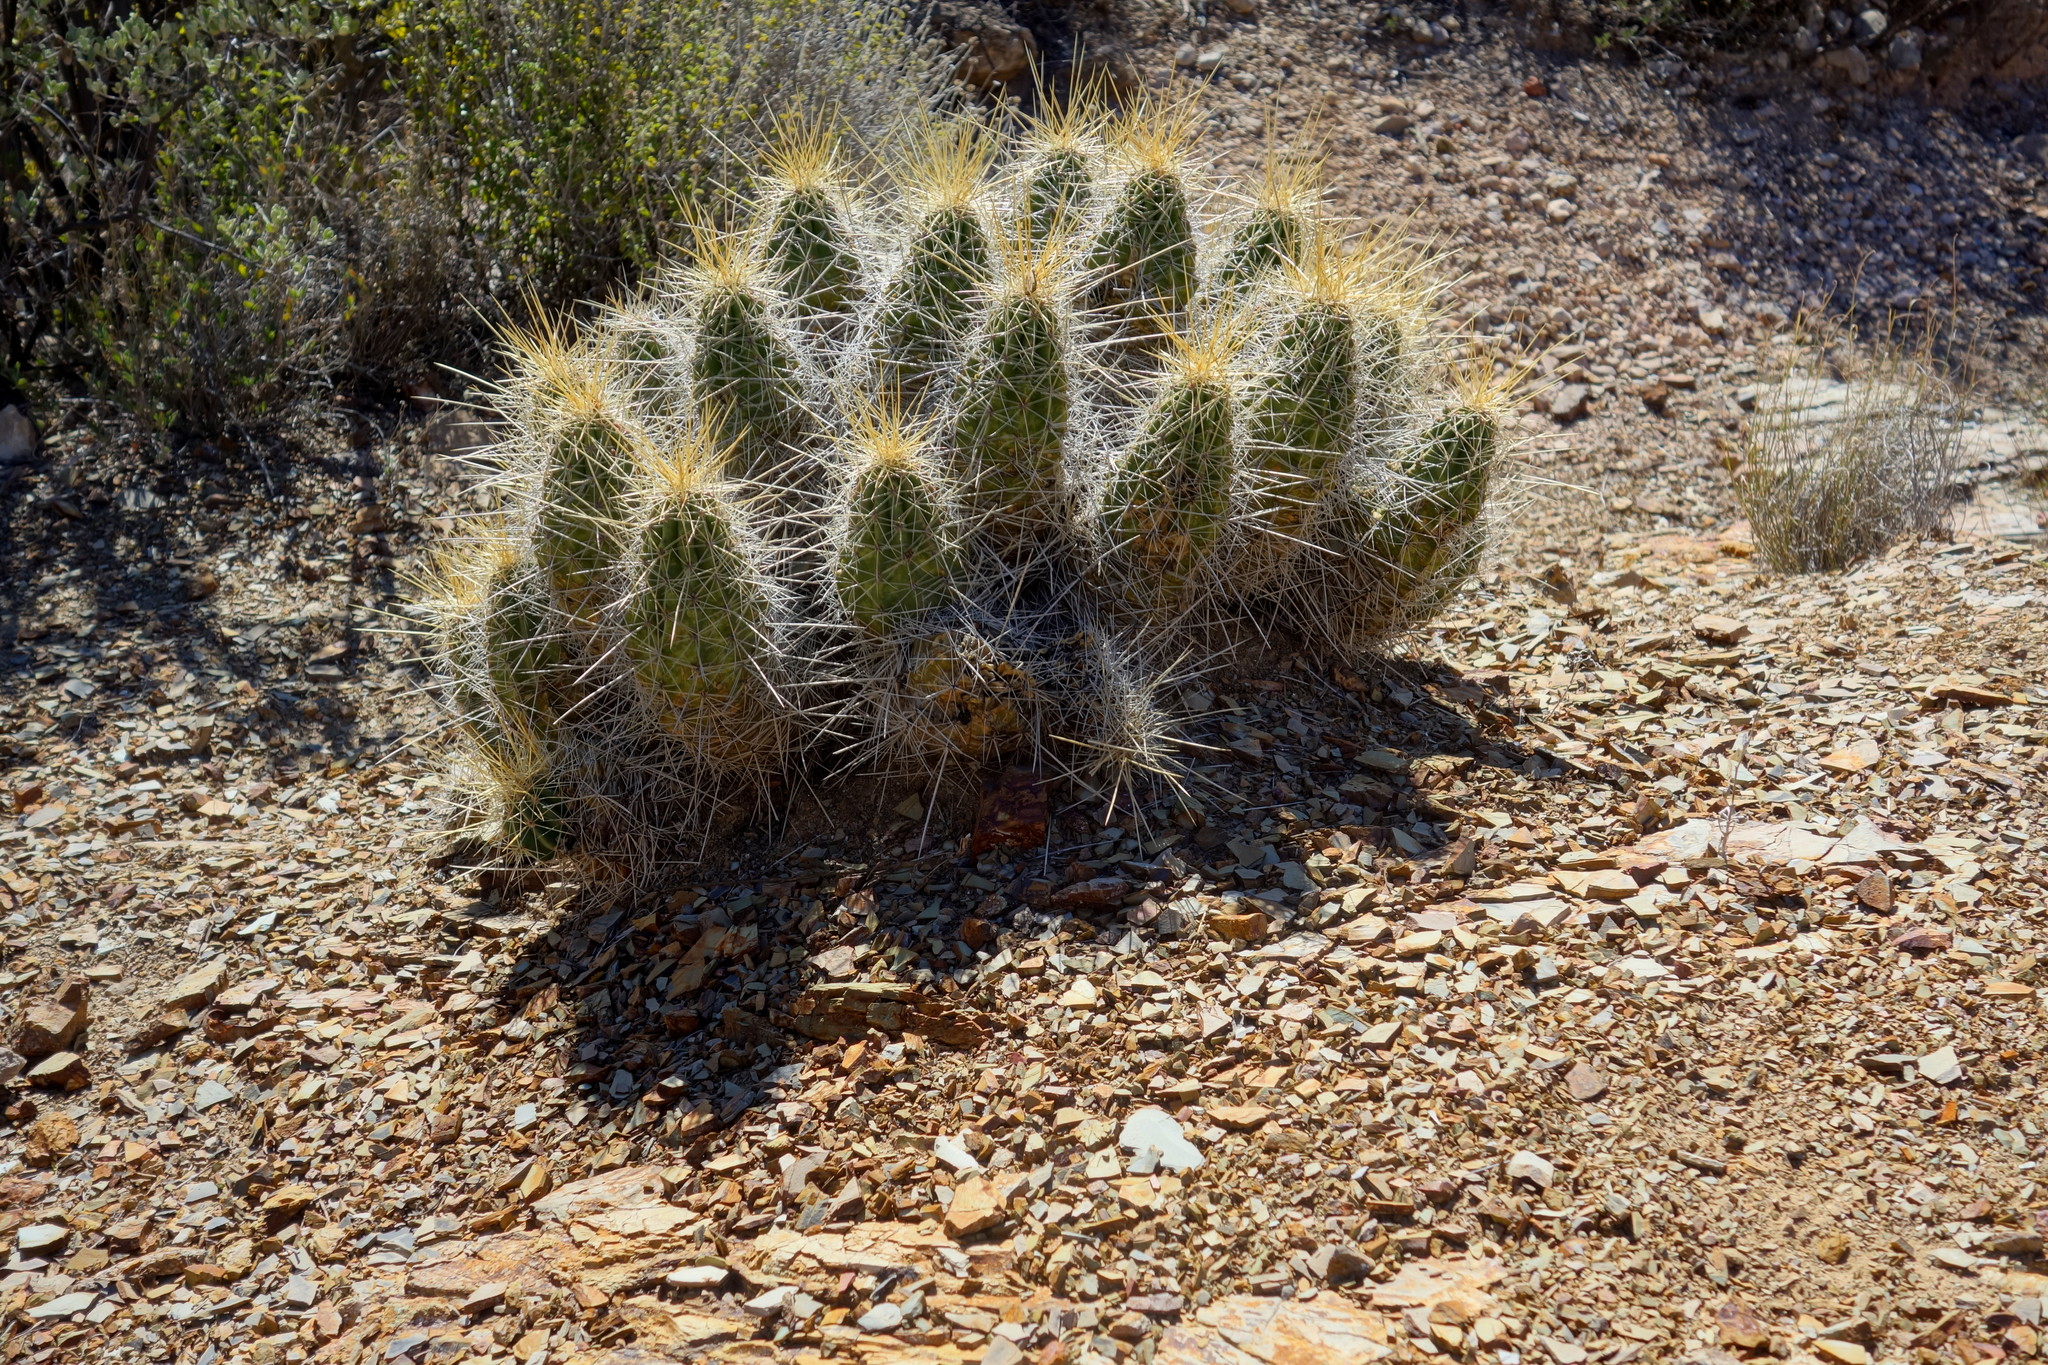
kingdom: Plantae
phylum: Tracheophyta
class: Magnoliopsida
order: Caryophyllales
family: Cactaceae
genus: Echinocereus
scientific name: Echinocereus stramineus
